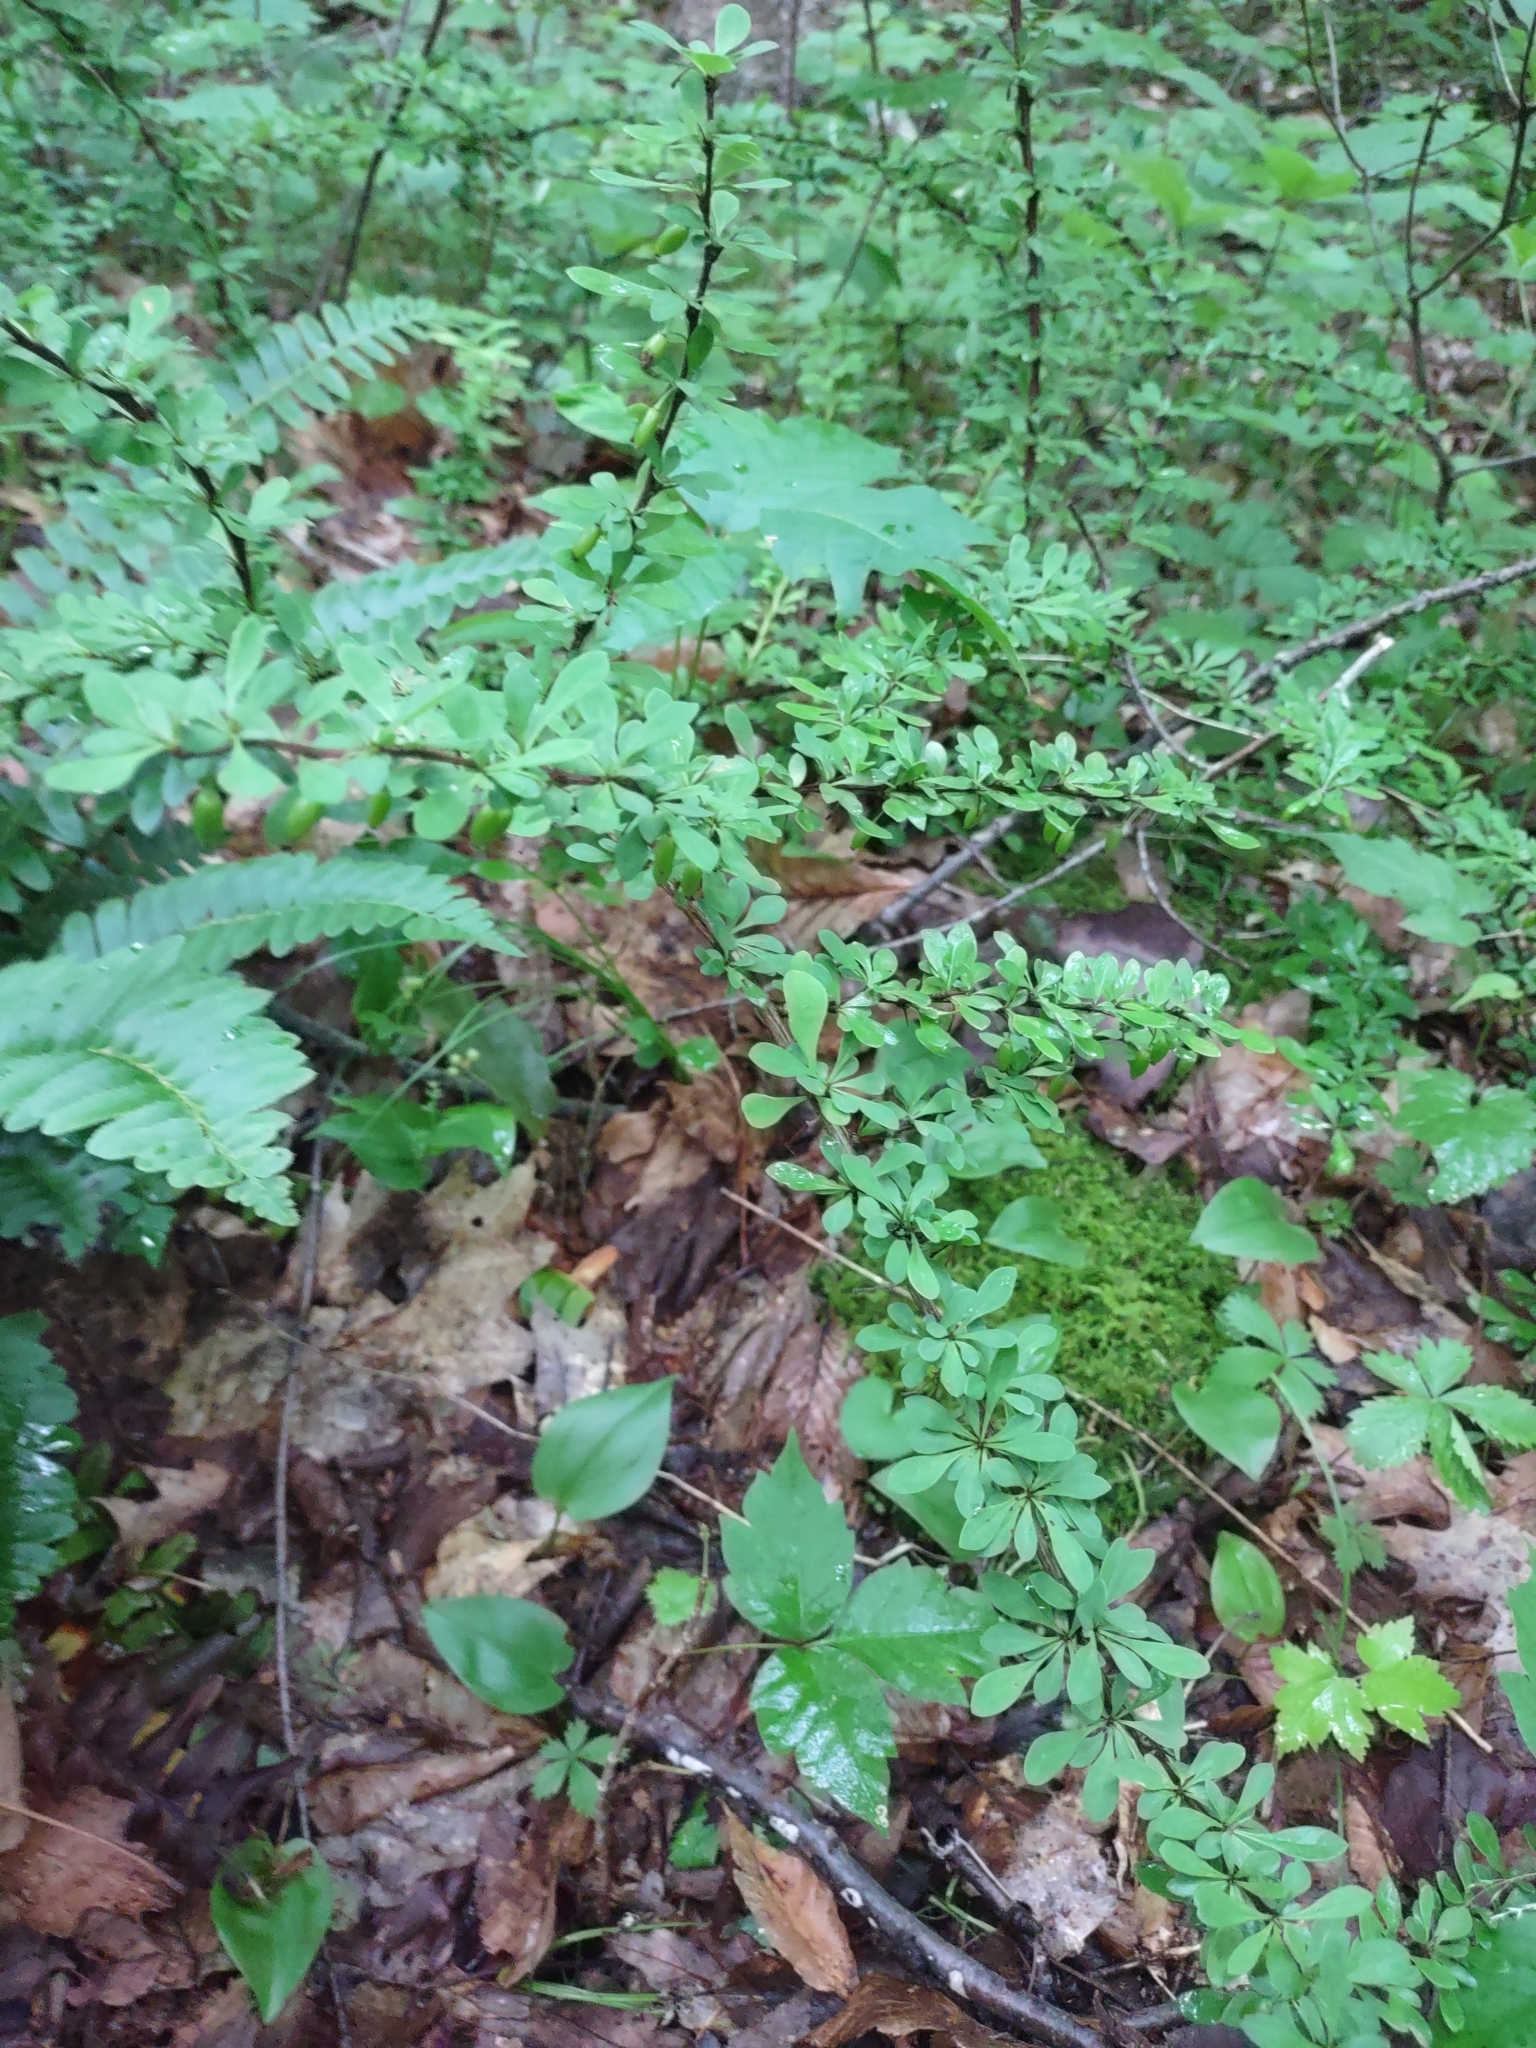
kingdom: Plantae
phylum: Tracheophyta
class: Magnoliopsida
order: Ranunculales
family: Berberidaceae
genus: Berberis
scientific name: Berberis thunbergii
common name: Japanese barberry
